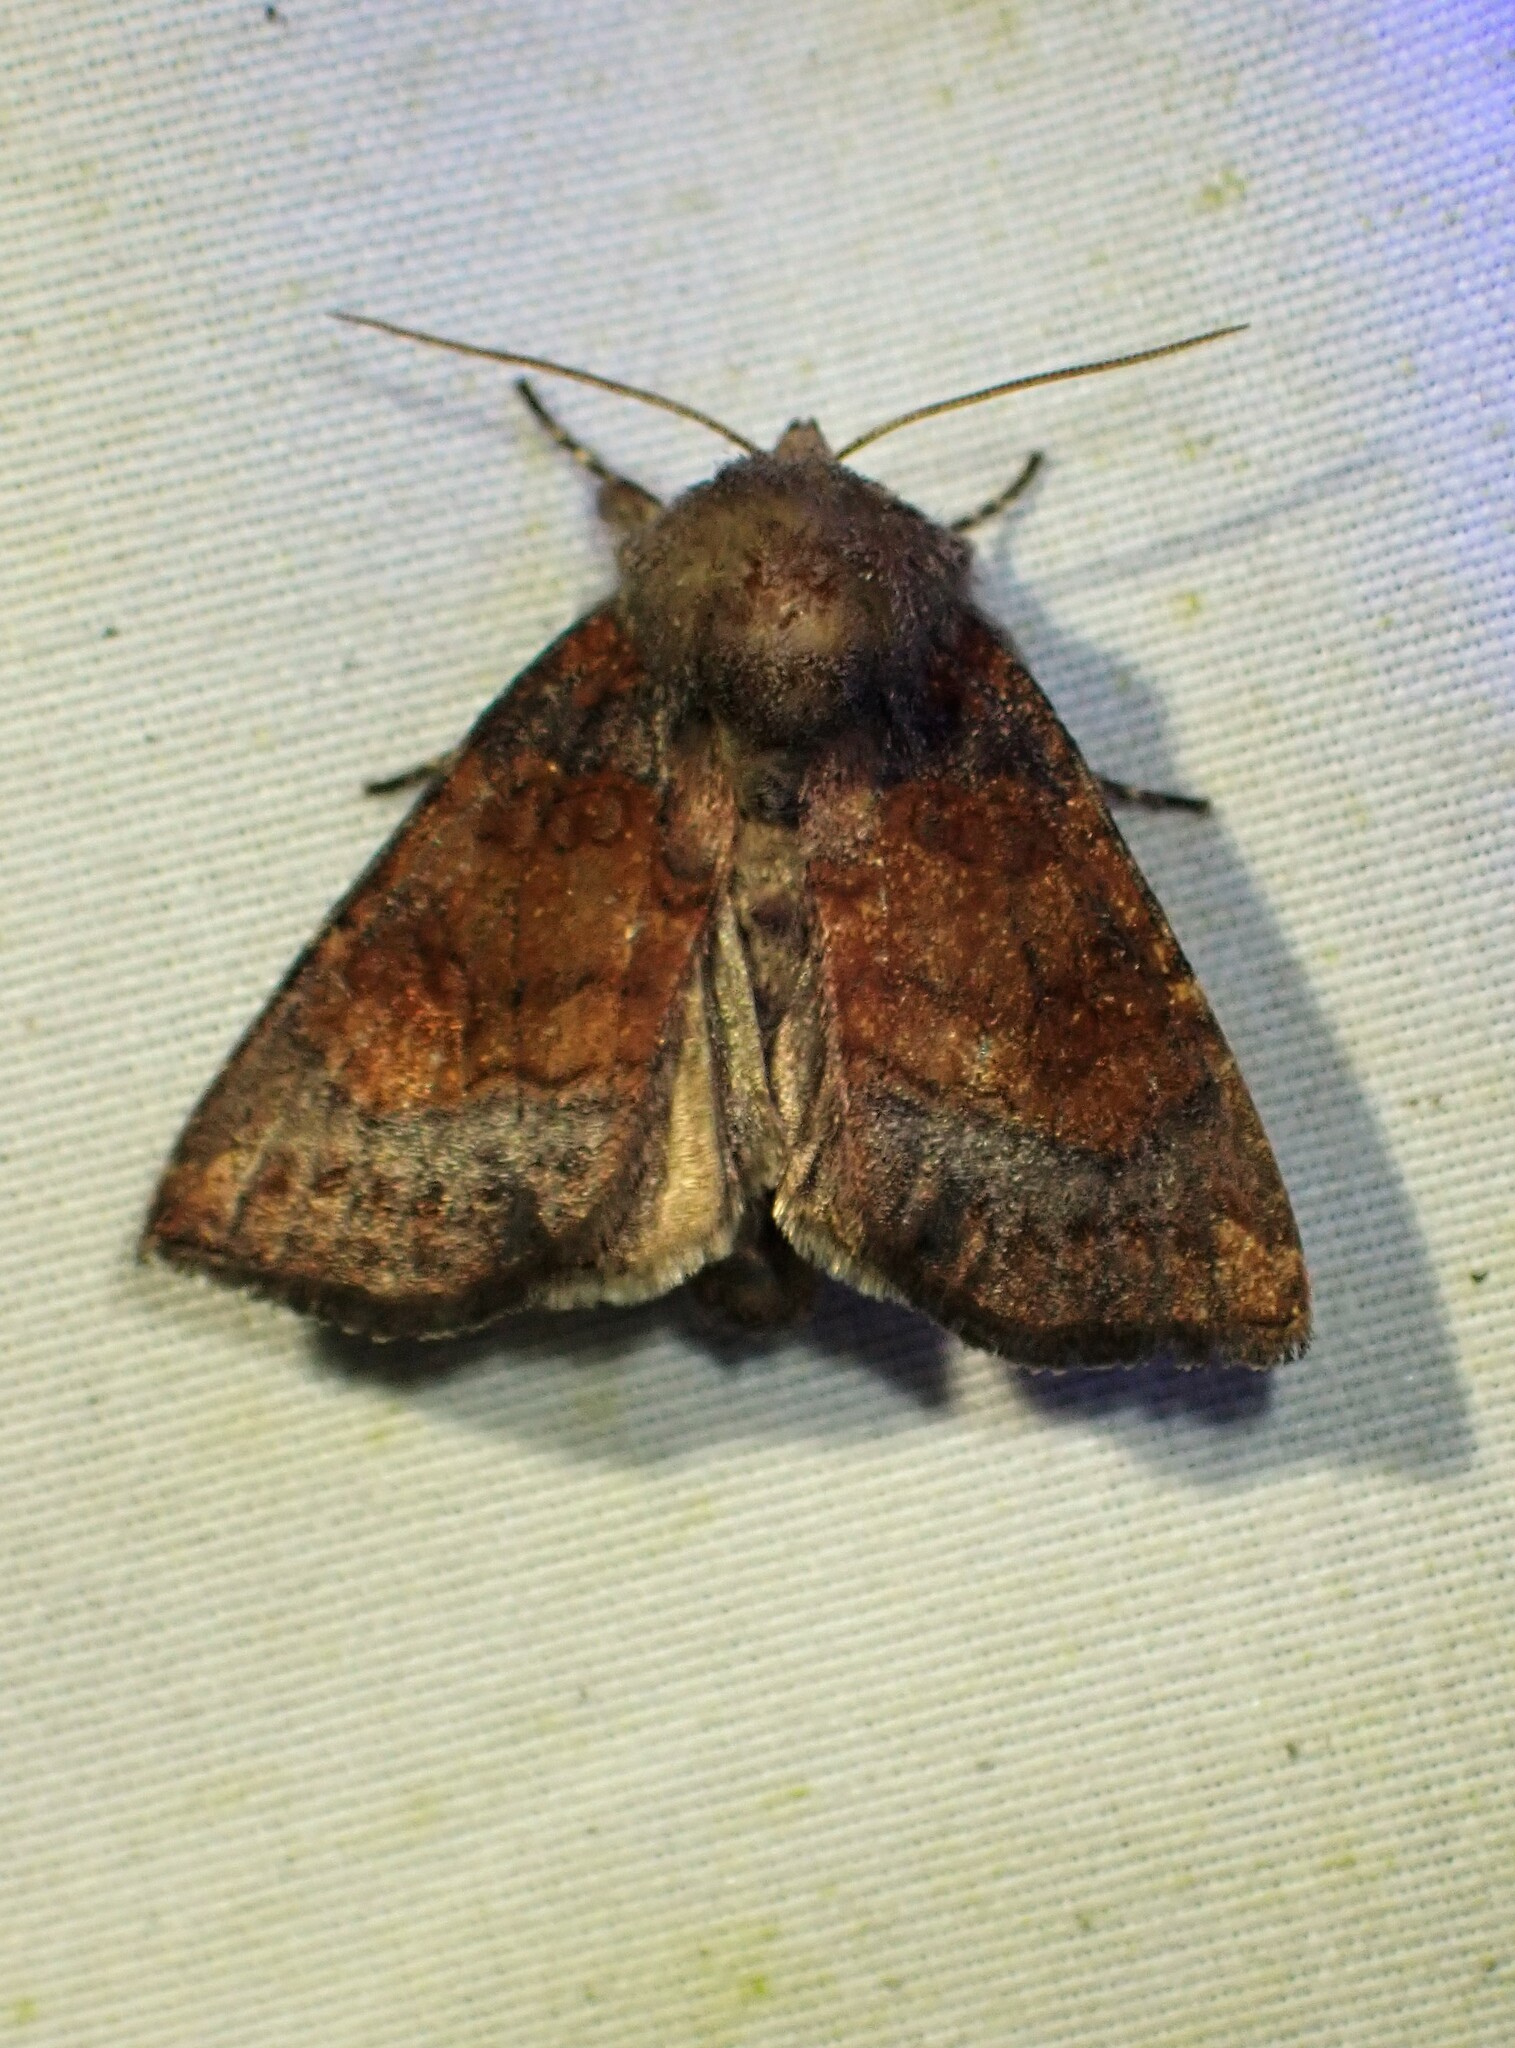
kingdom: Animalia
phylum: Arthropoda
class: Insecta
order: Lepidoptera
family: Noctuidae
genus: Papaipema
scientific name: Papaipema unimoda
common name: Meadow rue borer moth
